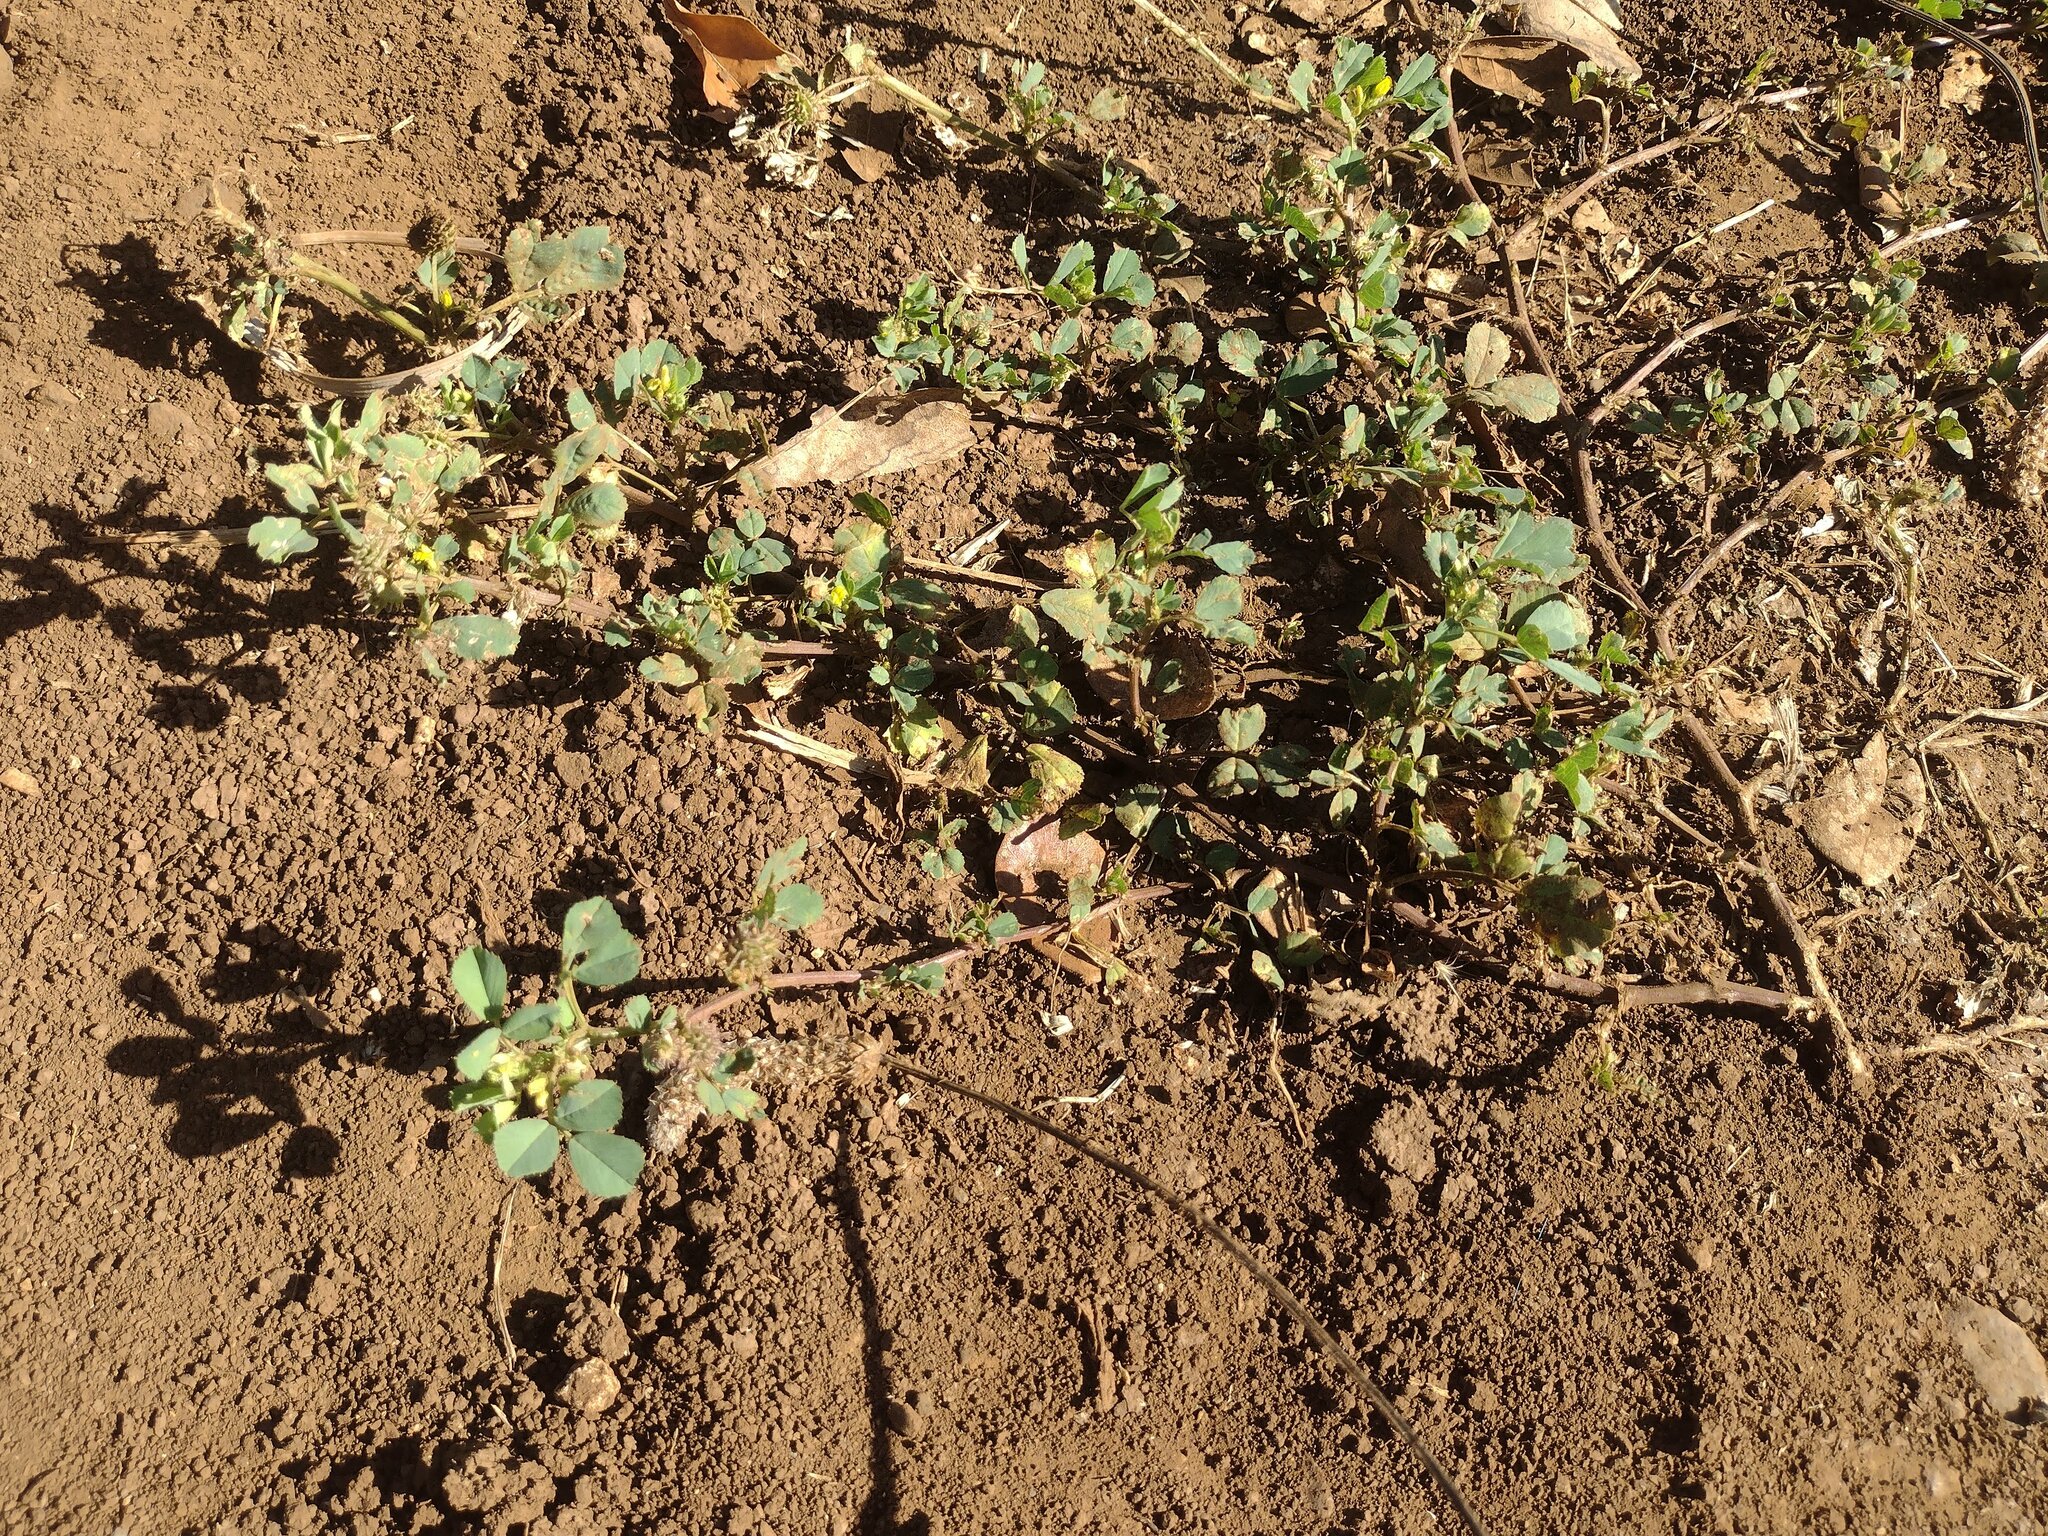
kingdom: Plantae
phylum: Tracheophyta
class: Magnoliopsida
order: Fabales
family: Fabaceae
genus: Medicago
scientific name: Medicago polymorpha
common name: Burclover
